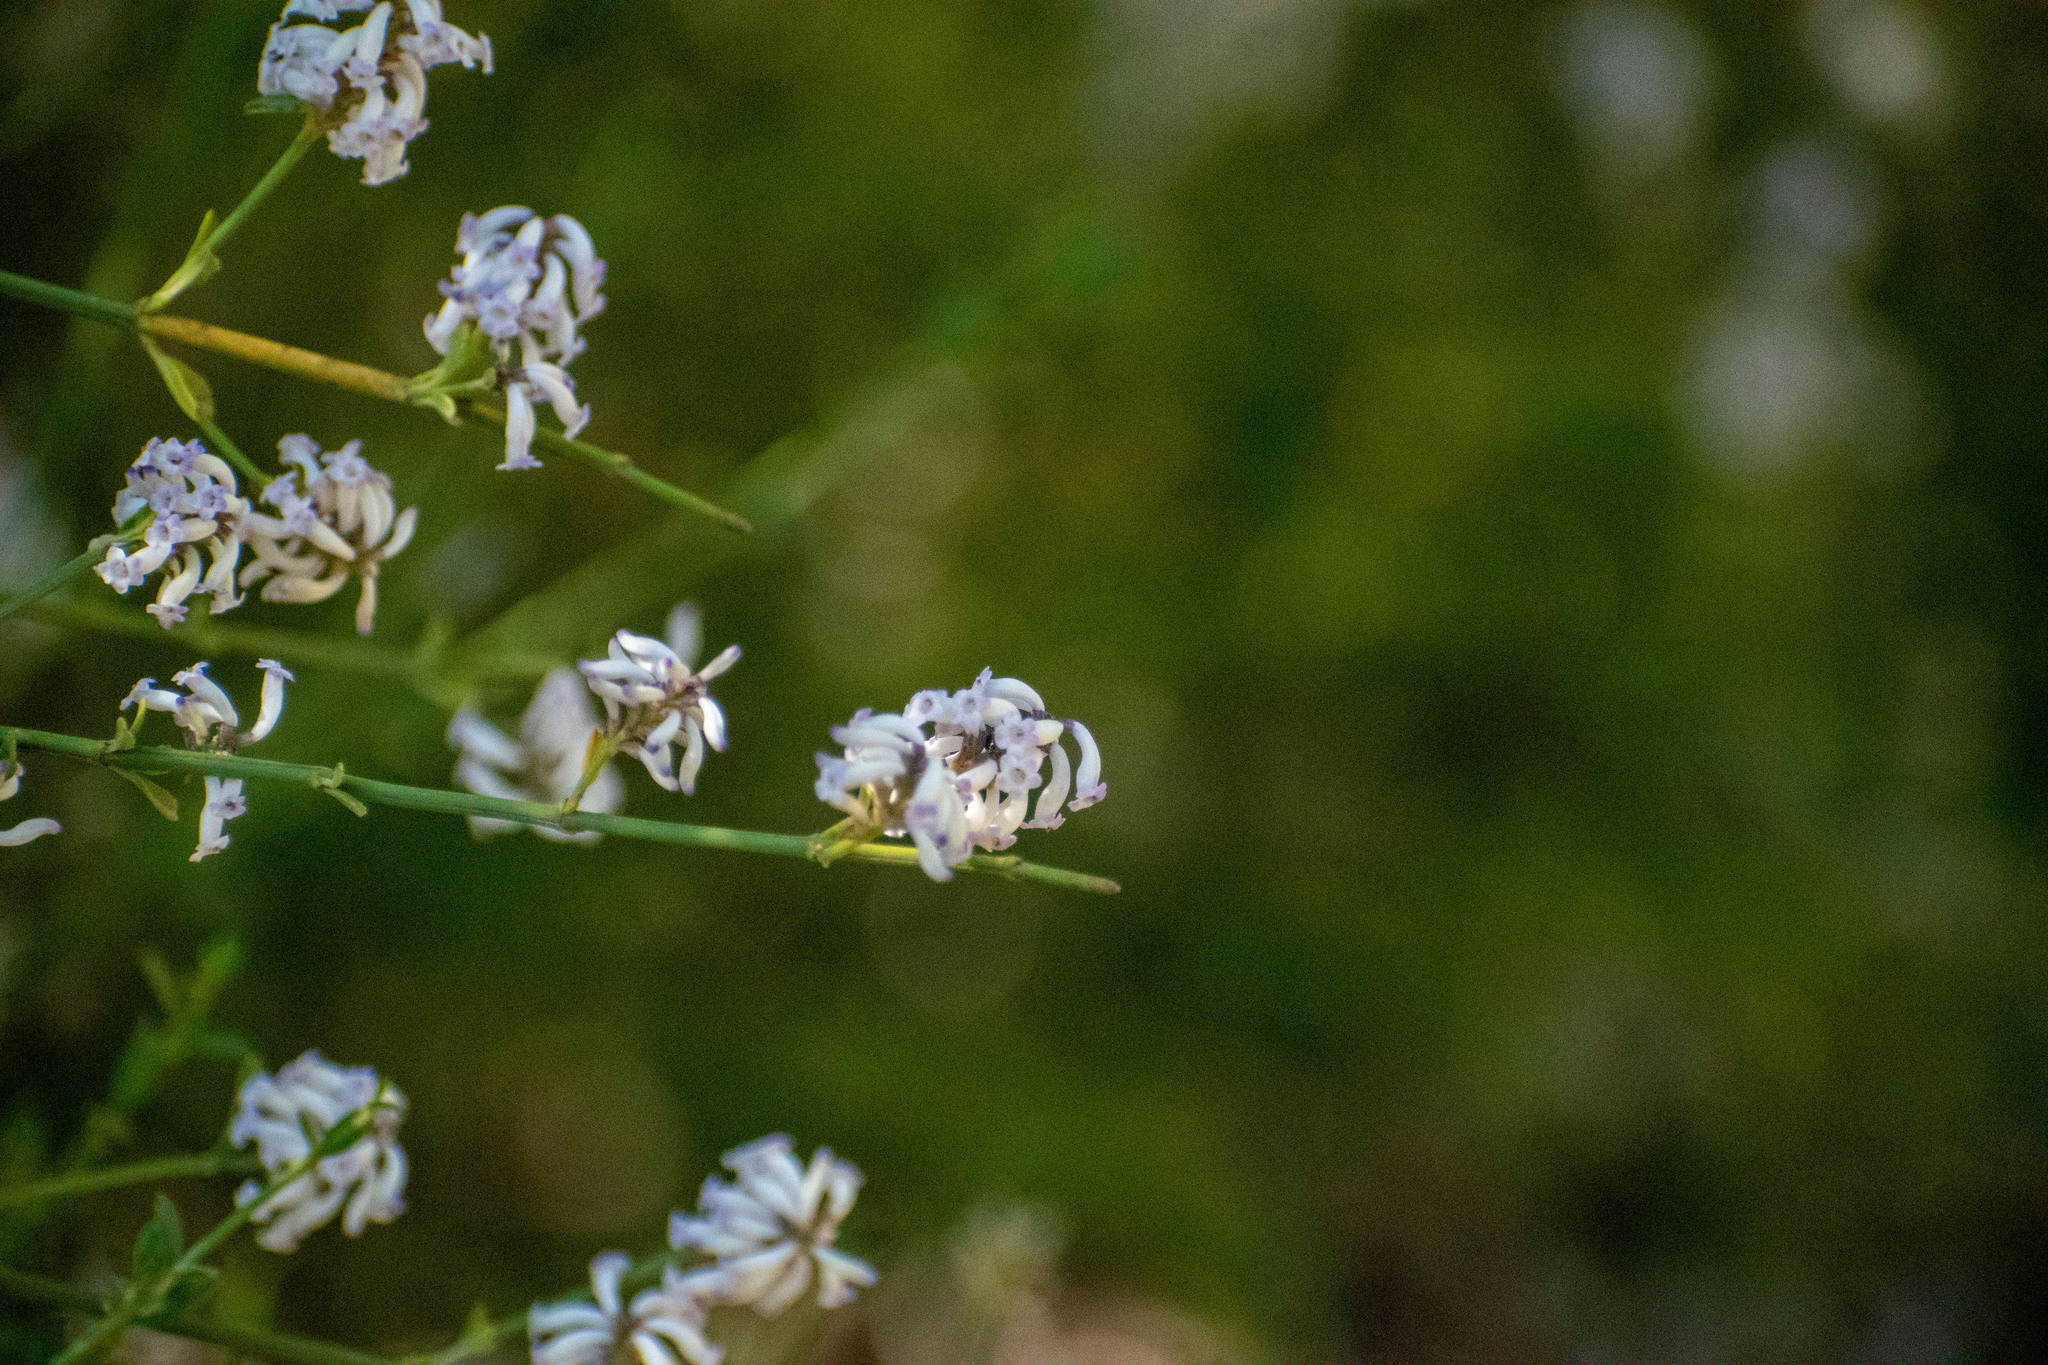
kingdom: Plantae
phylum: Tracheophyta
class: Magnoliopsida
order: Lamiales
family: Verbenaceae
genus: Diostea
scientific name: Diostea juncea
